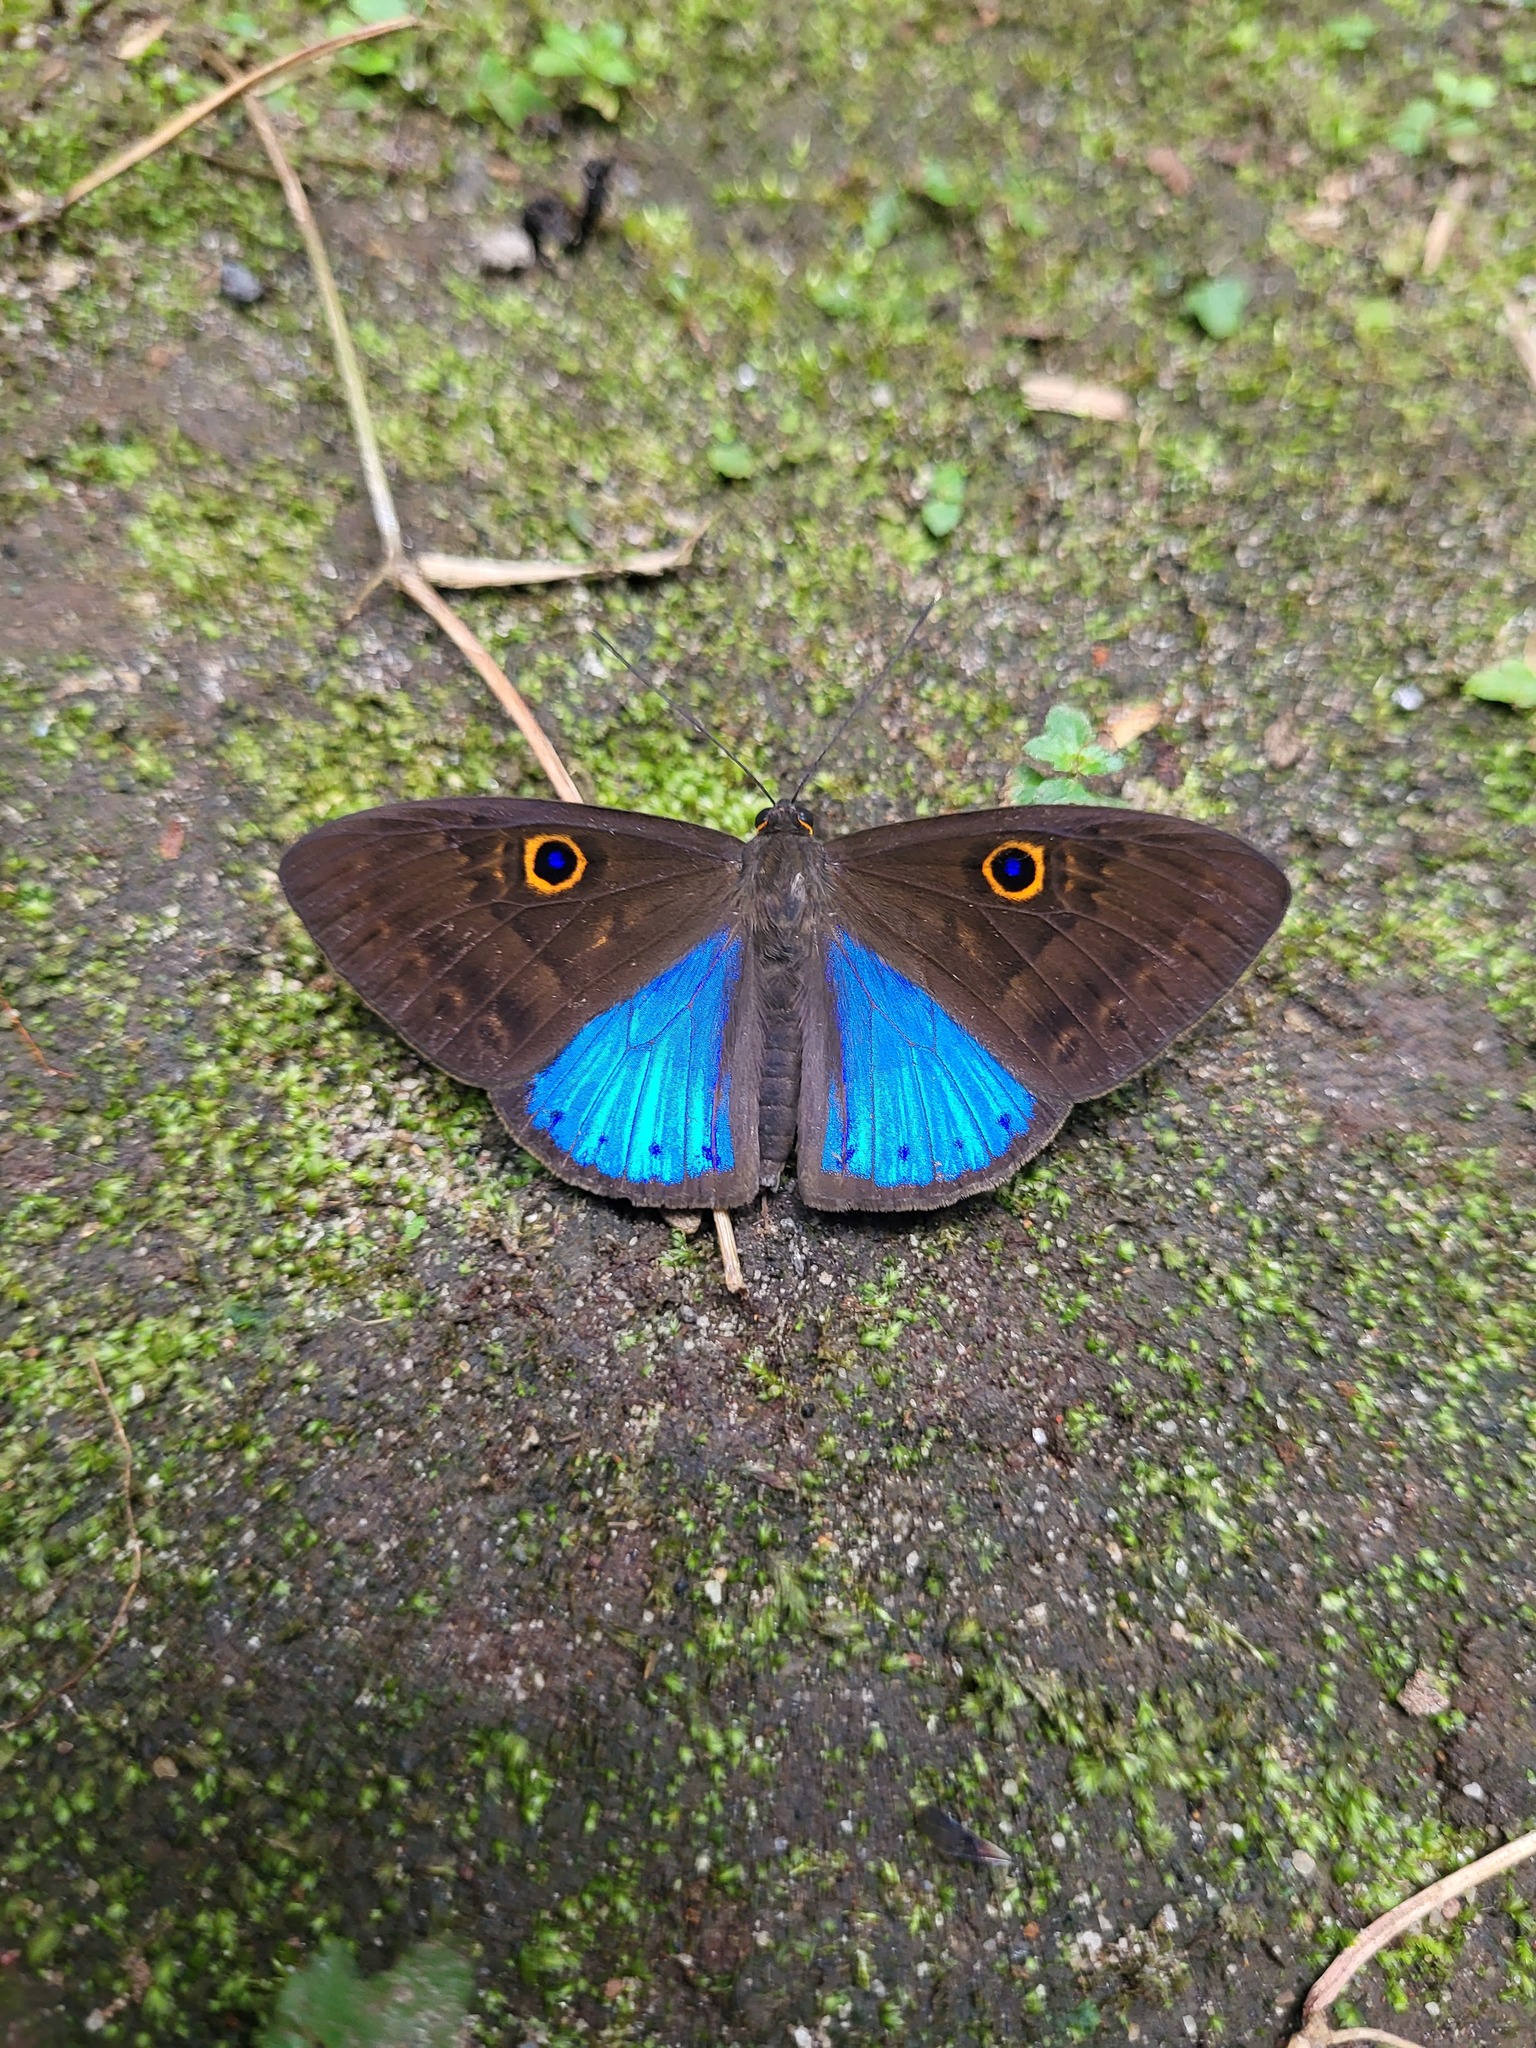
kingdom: Animalia
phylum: Cnidaria
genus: Eurybia
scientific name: Eurybia lycisca
